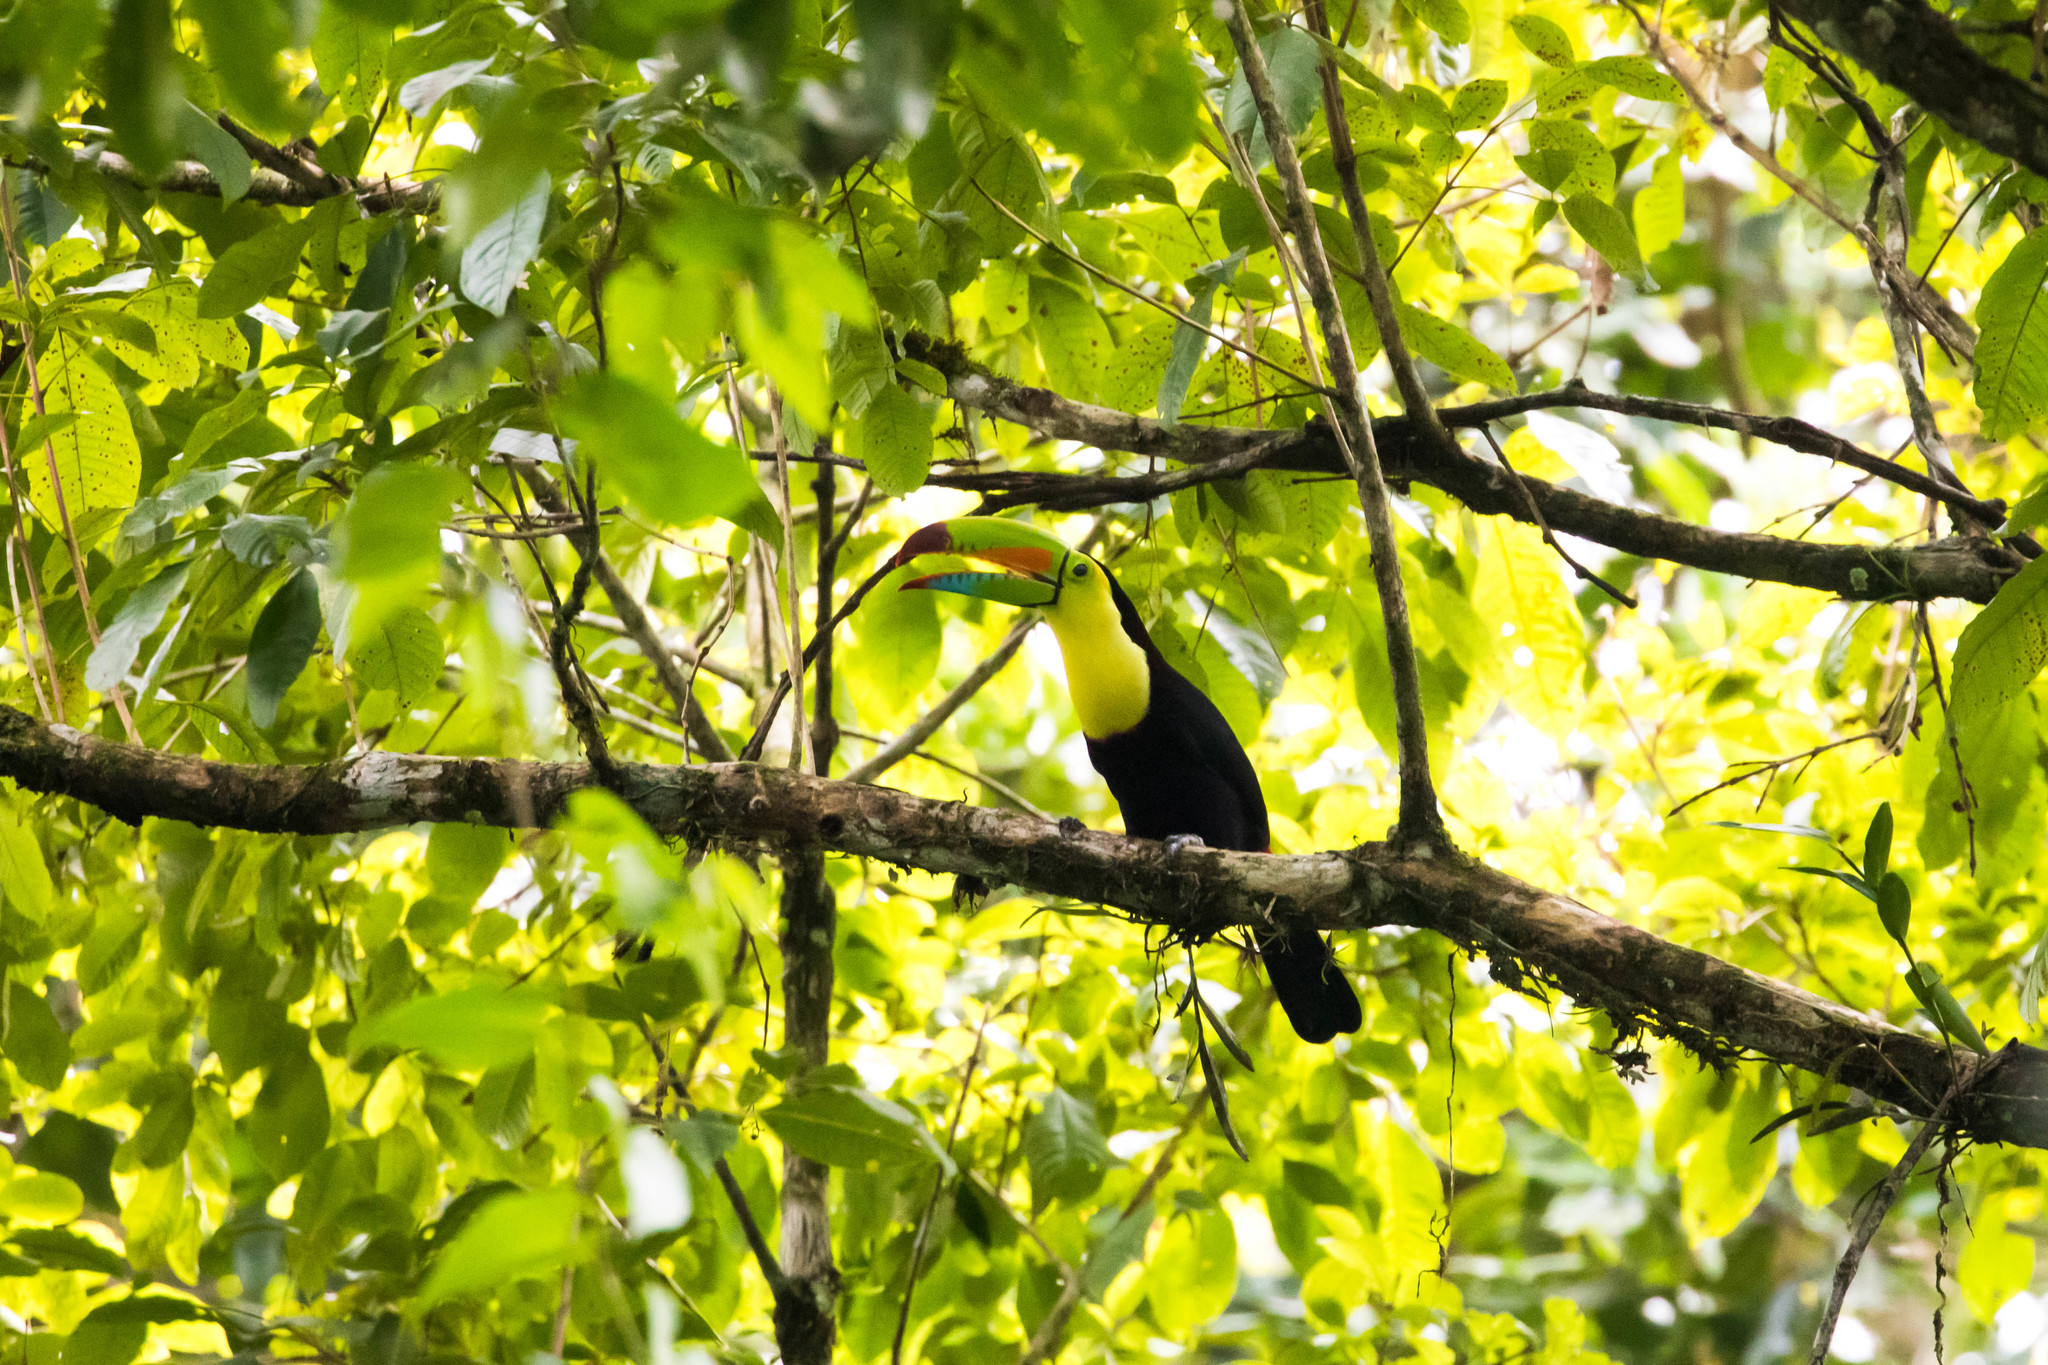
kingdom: Animalia
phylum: Chordata
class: Aves
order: Piciformes
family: Ramphastidae
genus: Ramphastos
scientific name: Ramphastos sulfuratus
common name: Keel-billed toucan
